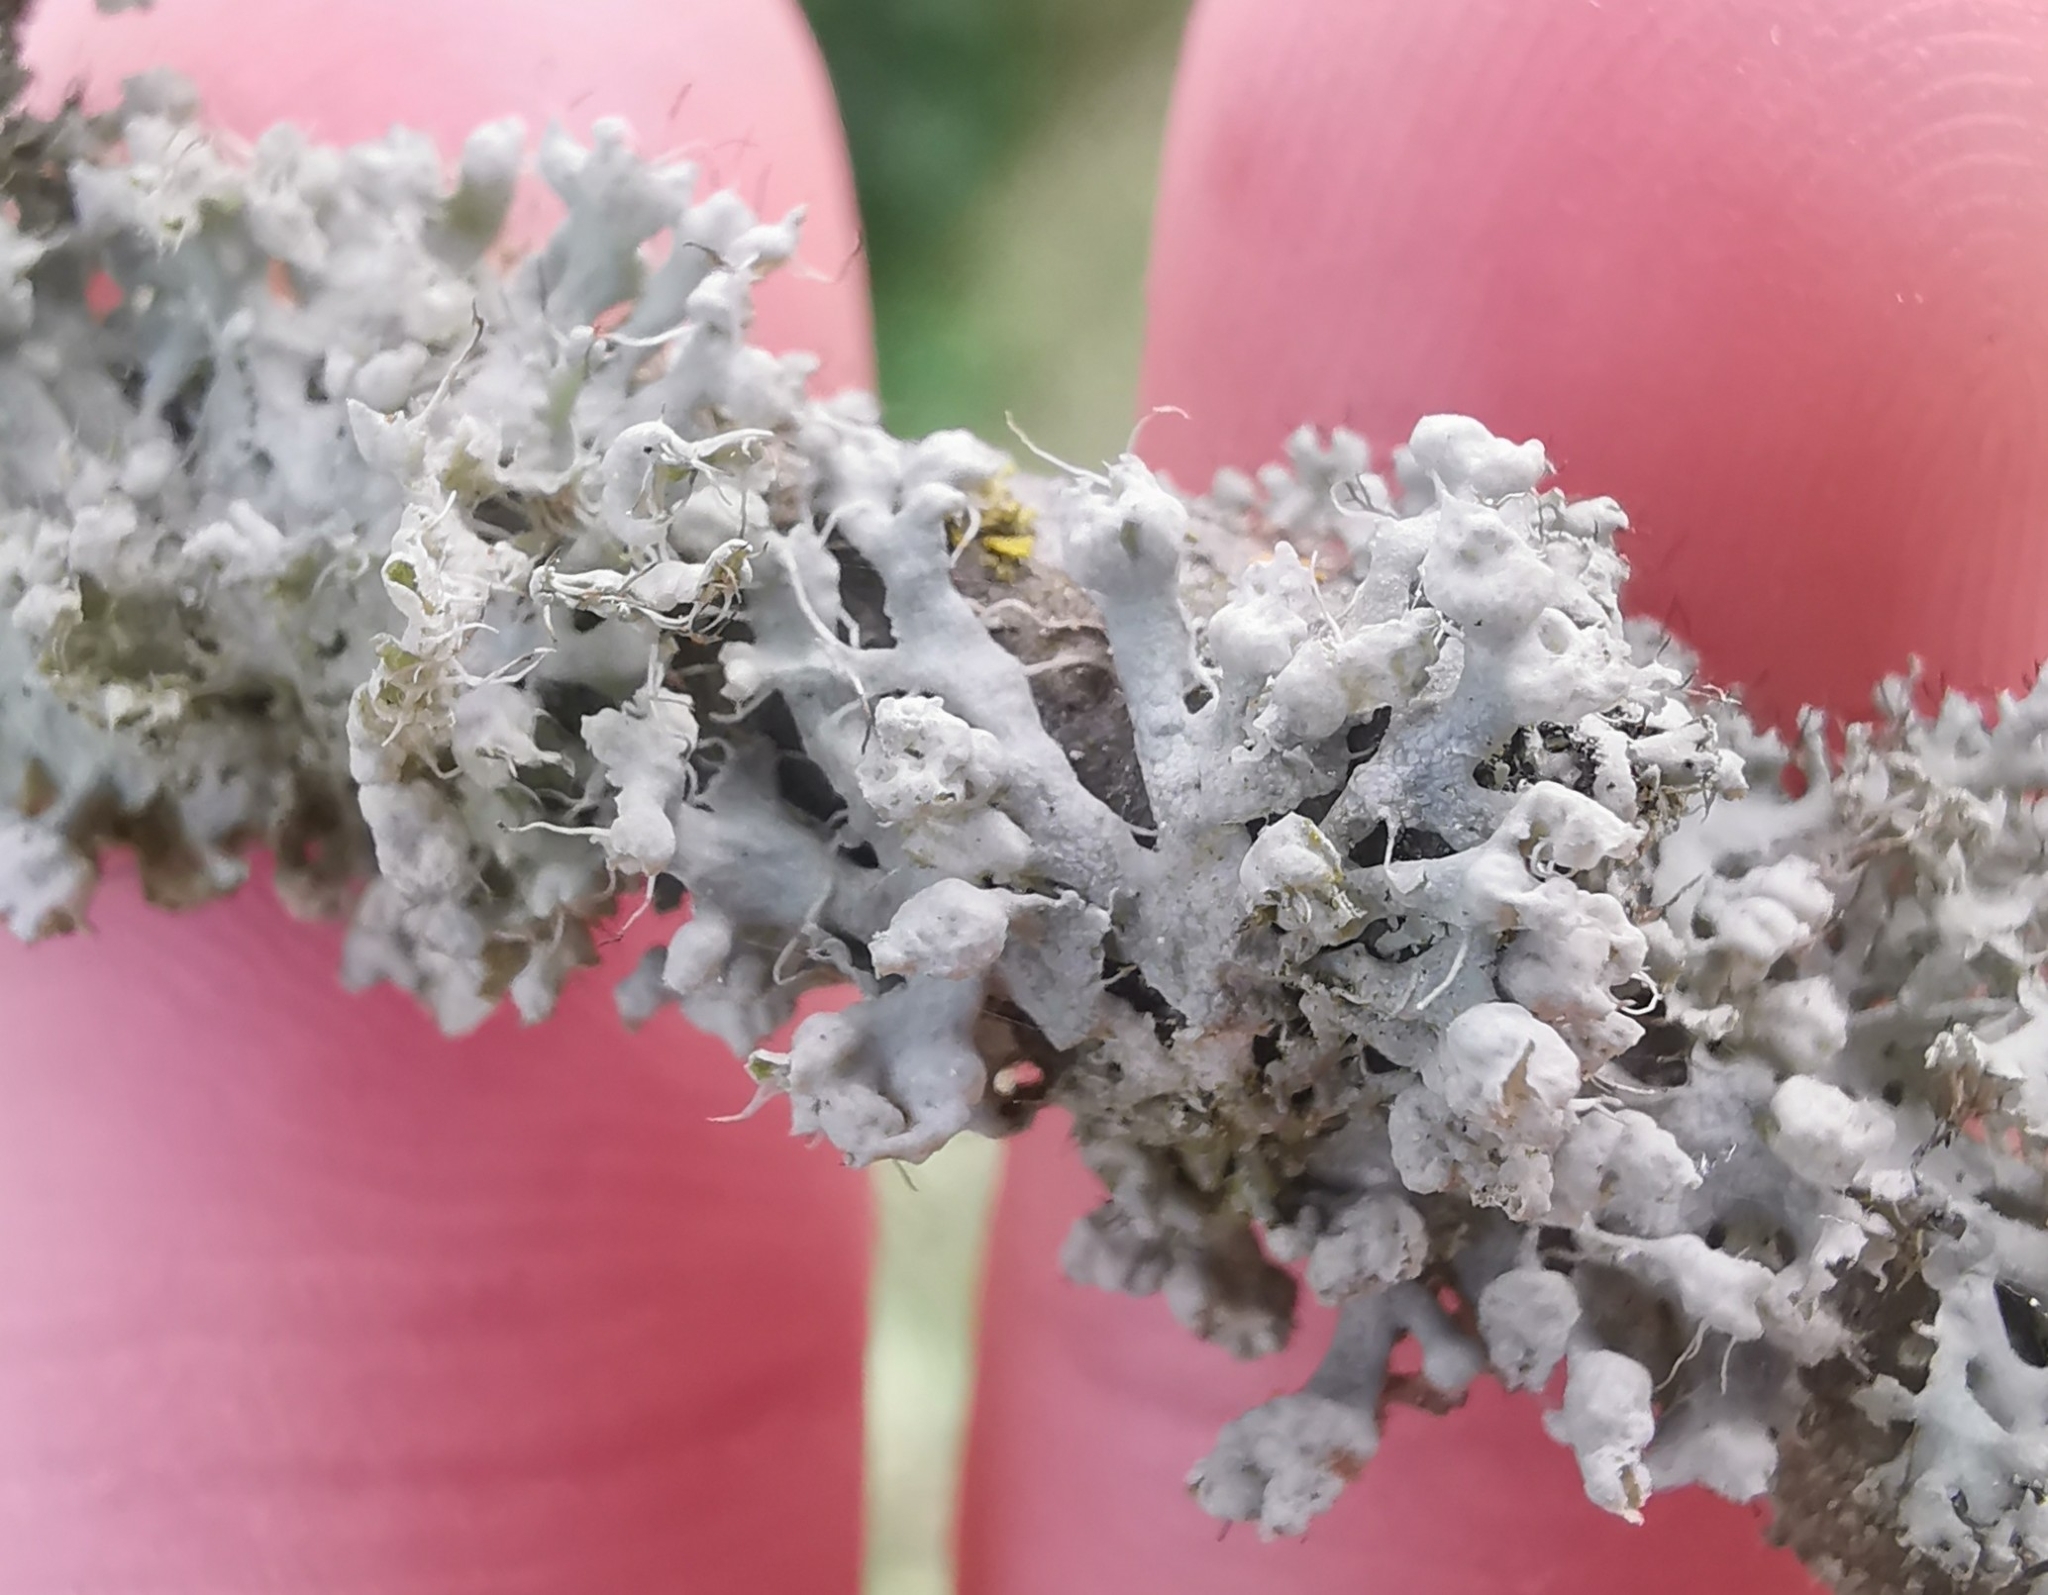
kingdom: Fungi
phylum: Ascomycota
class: Lecanoromycetes
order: Caliciales
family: Physciaceae
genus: Physcia
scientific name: Physcia adscendens
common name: Hooded rosette lichen
